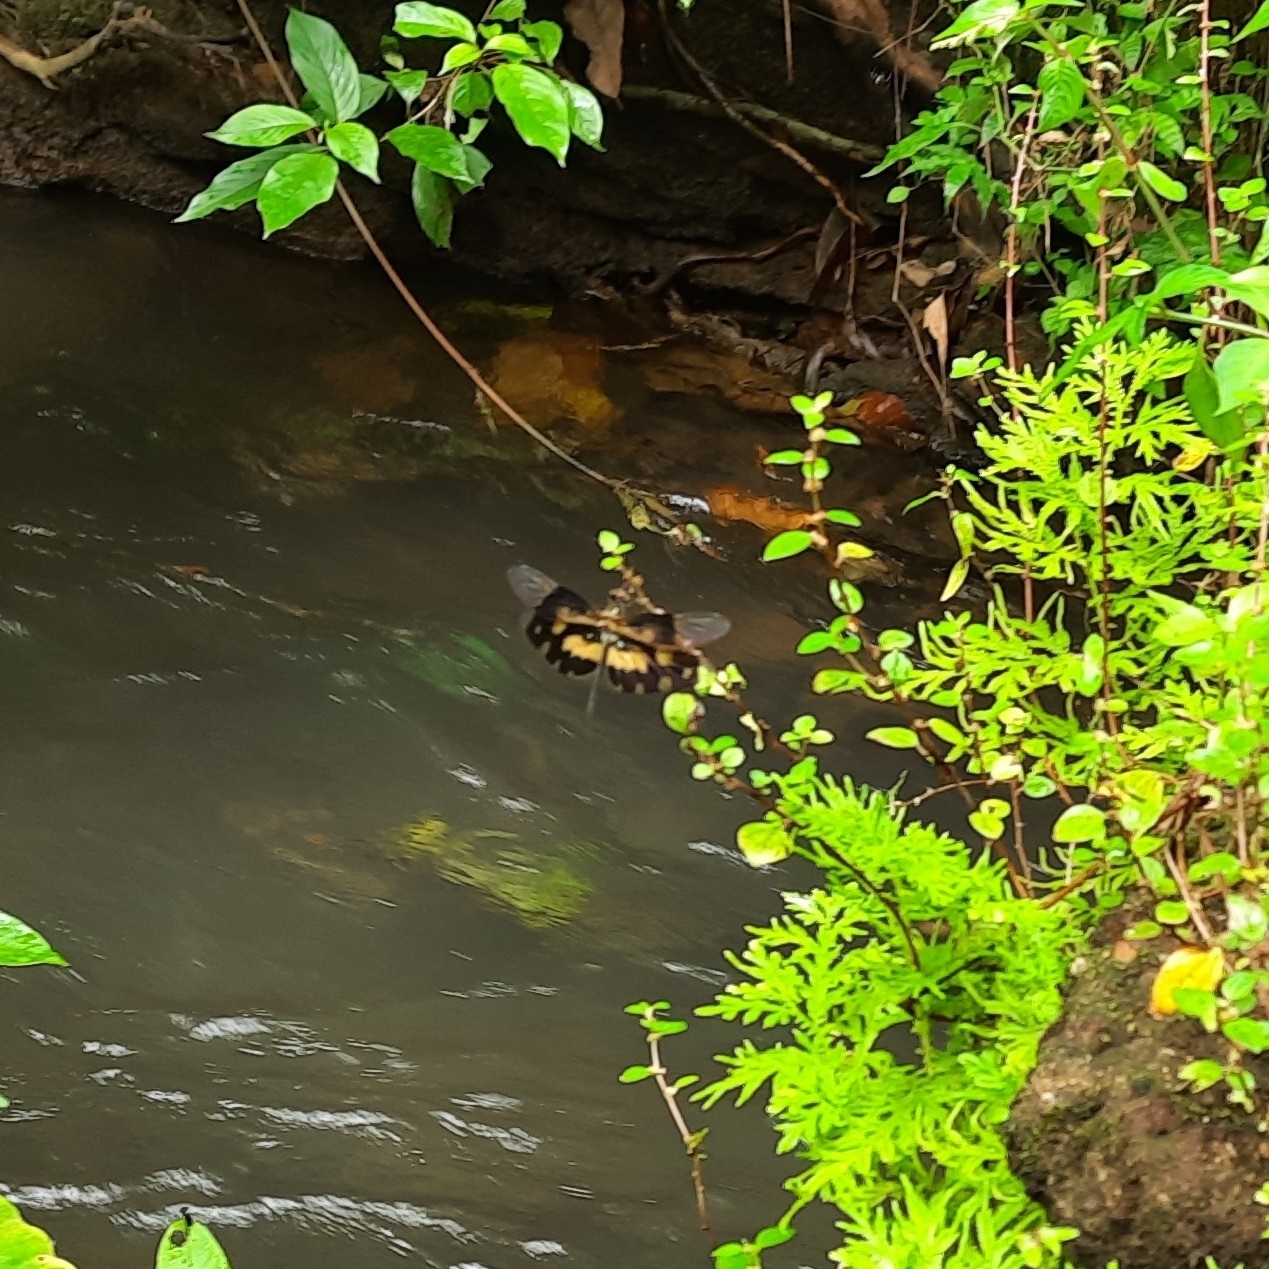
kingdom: Animalia
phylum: Arthropoda
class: Insecta
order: Odonata
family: Libellulidae
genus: Rhyothemis
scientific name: Rhyothemis variegata
